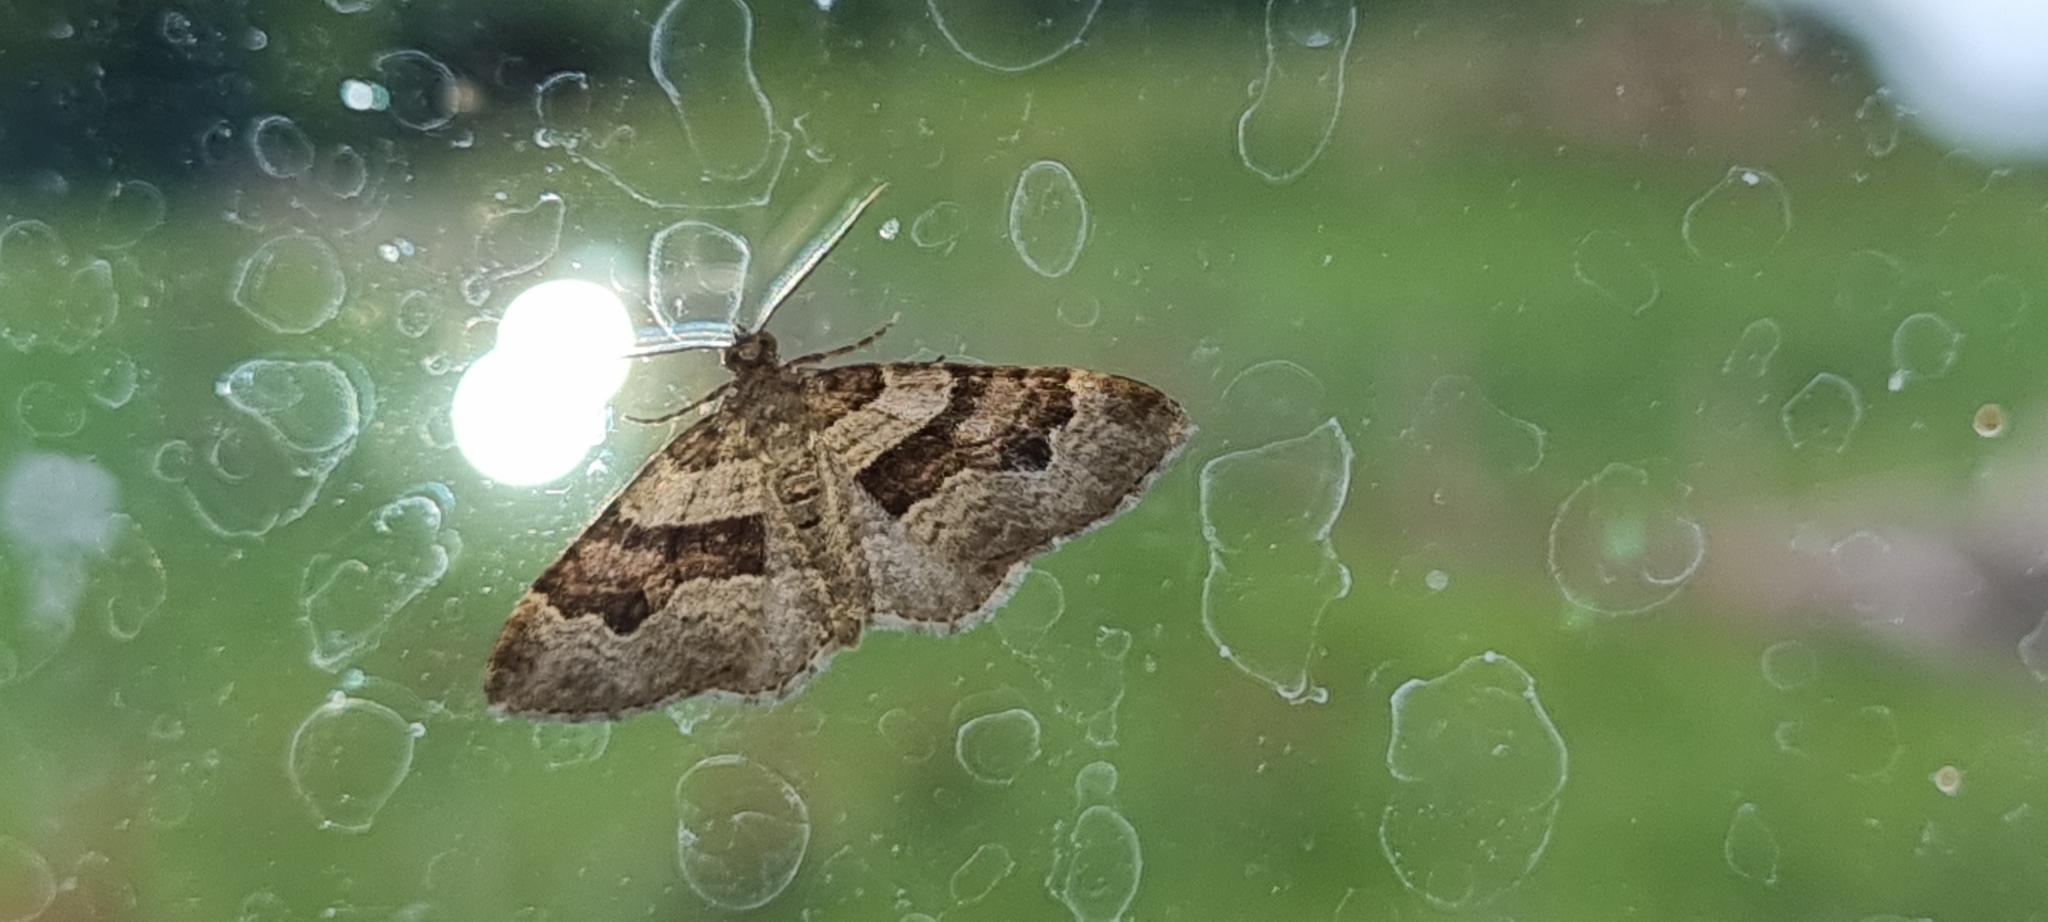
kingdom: Animalia
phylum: Arthropoda
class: Insecta
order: Lepidoptera
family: Geometridae
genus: Xanthorhoe
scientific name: Xanthorhoe designata
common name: Flame carpet
